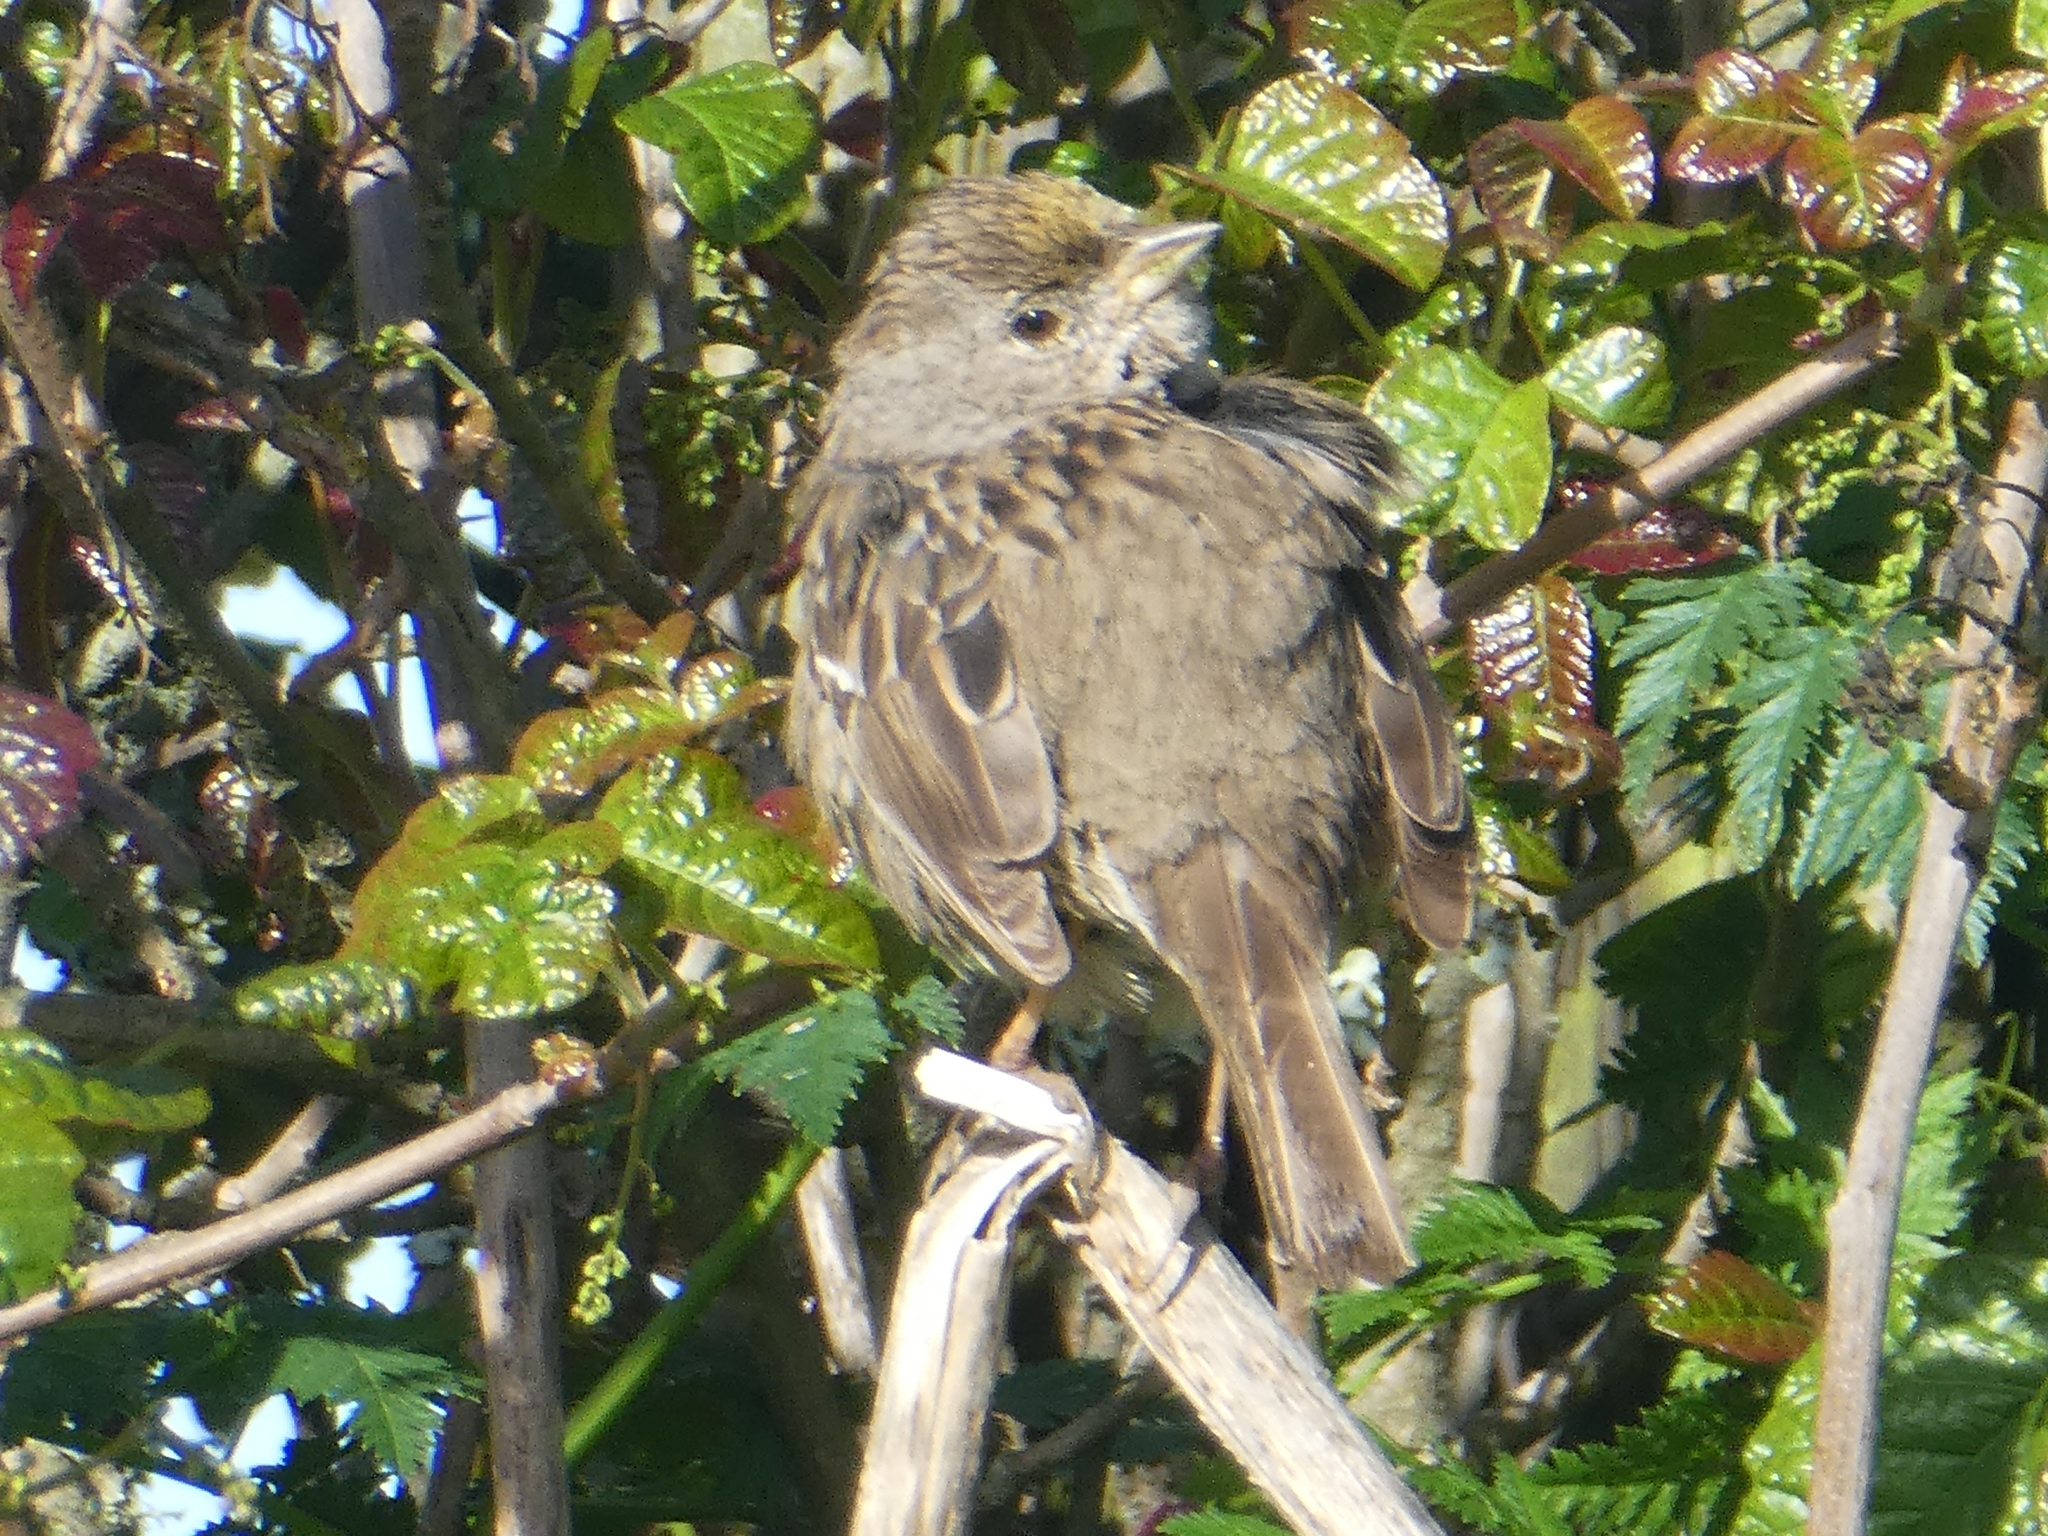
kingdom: Animalia
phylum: Chordata
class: Aves
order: Passeriformes
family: Passerellidae
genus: Zonotrichia
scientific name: Zonotrichia atricapilla
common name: Golden-crowned sparrow
